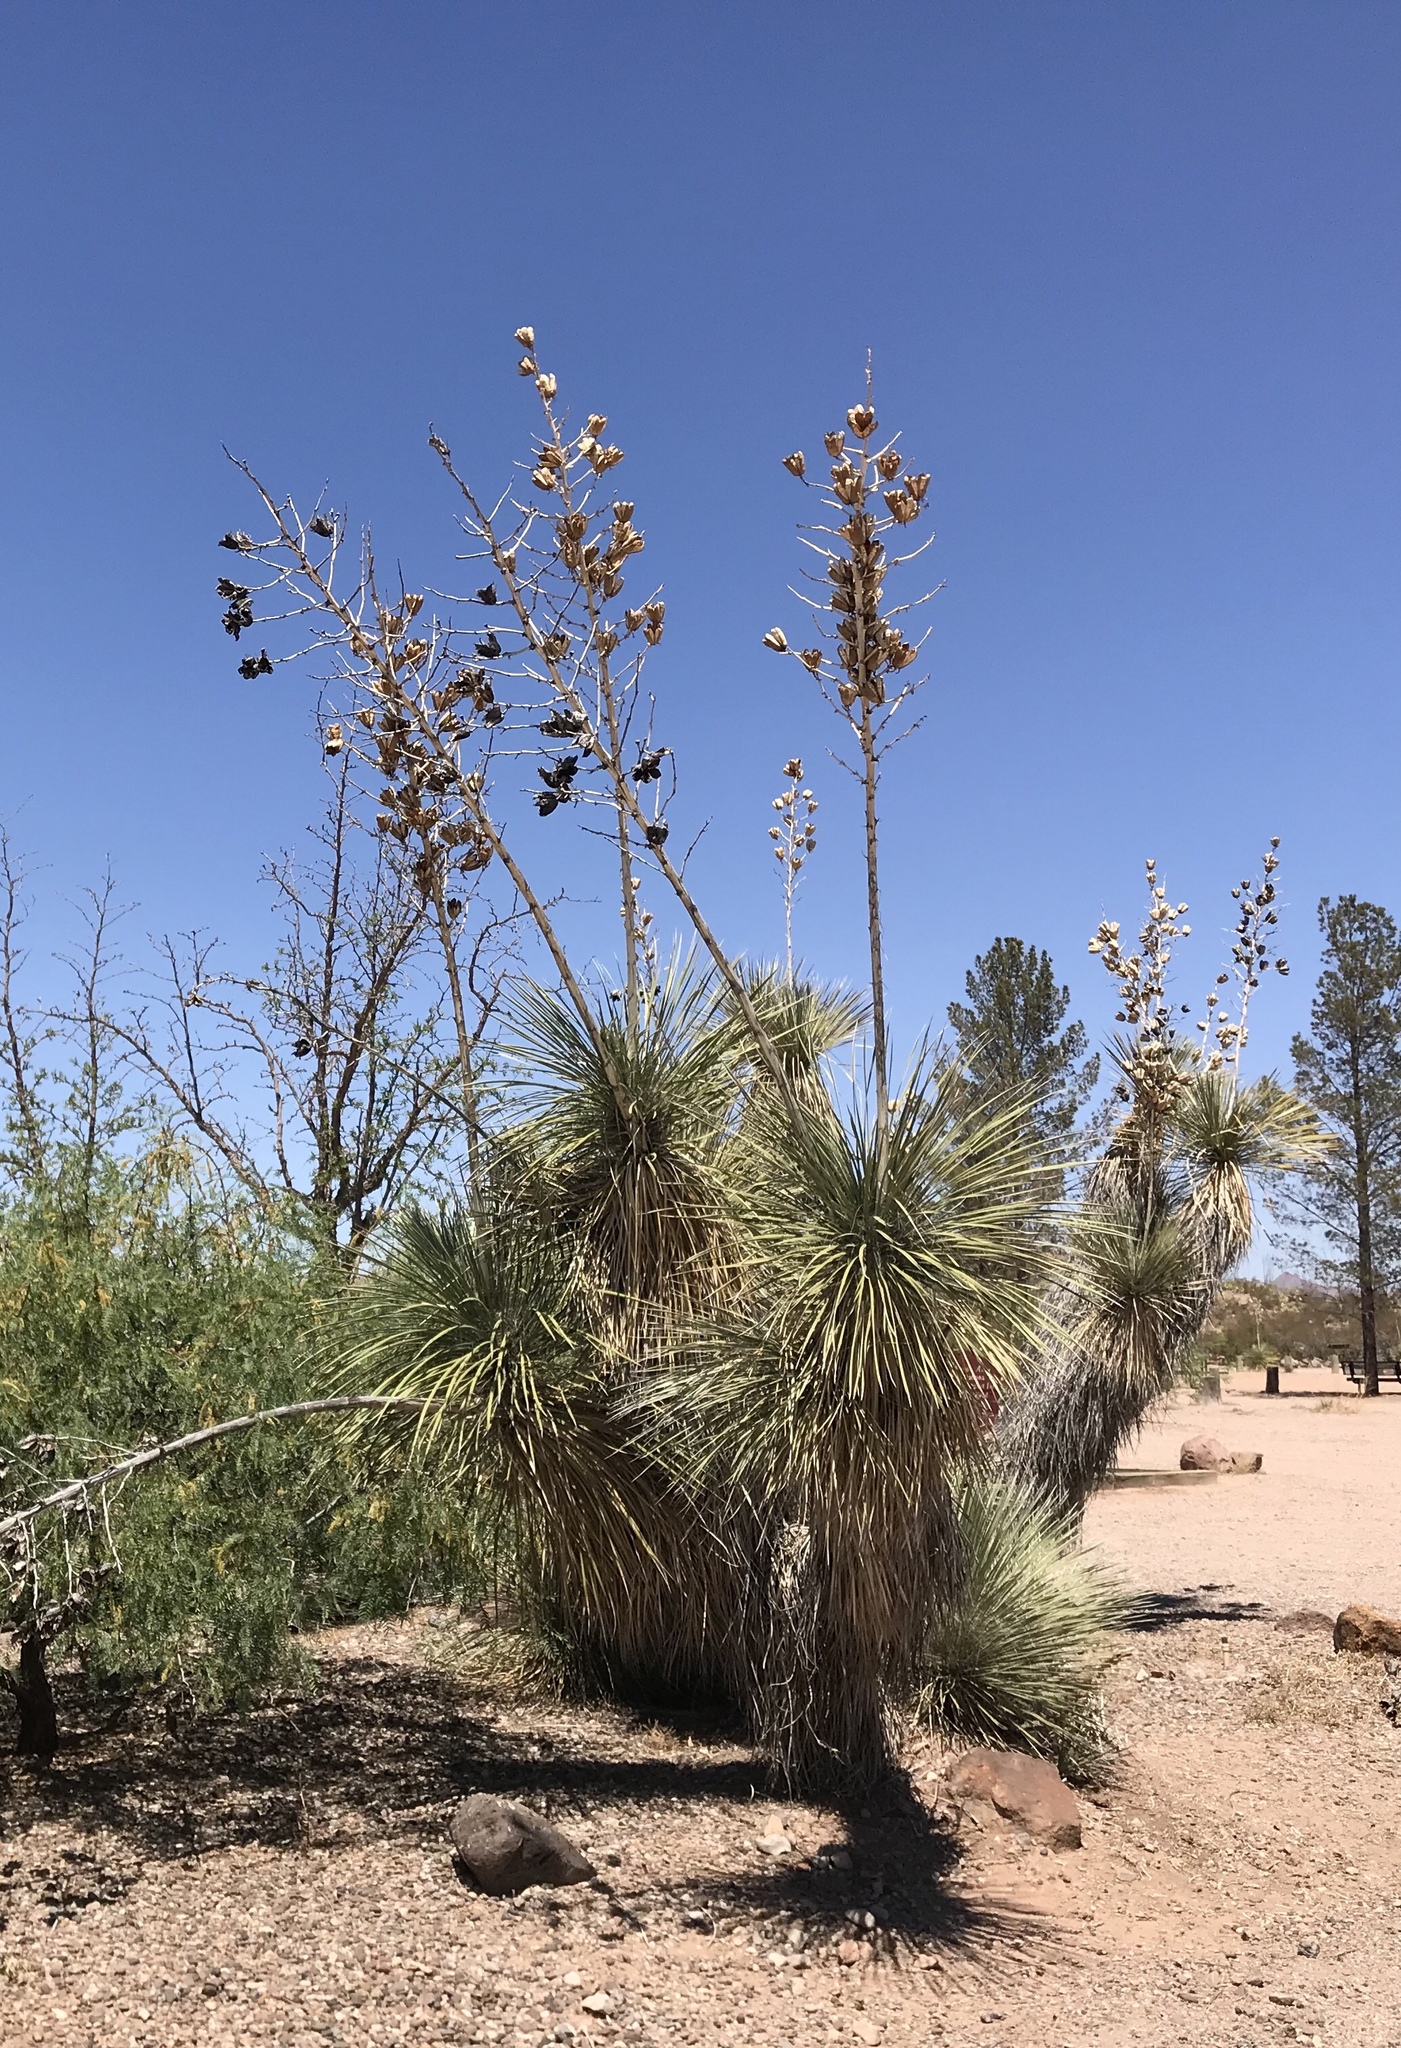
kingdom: Plantae
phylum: Tracheophyta
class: Liliopsida
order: Asparagales
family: Asparagaceae
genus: Yucca
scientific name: Yucca elata
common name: Palmella
